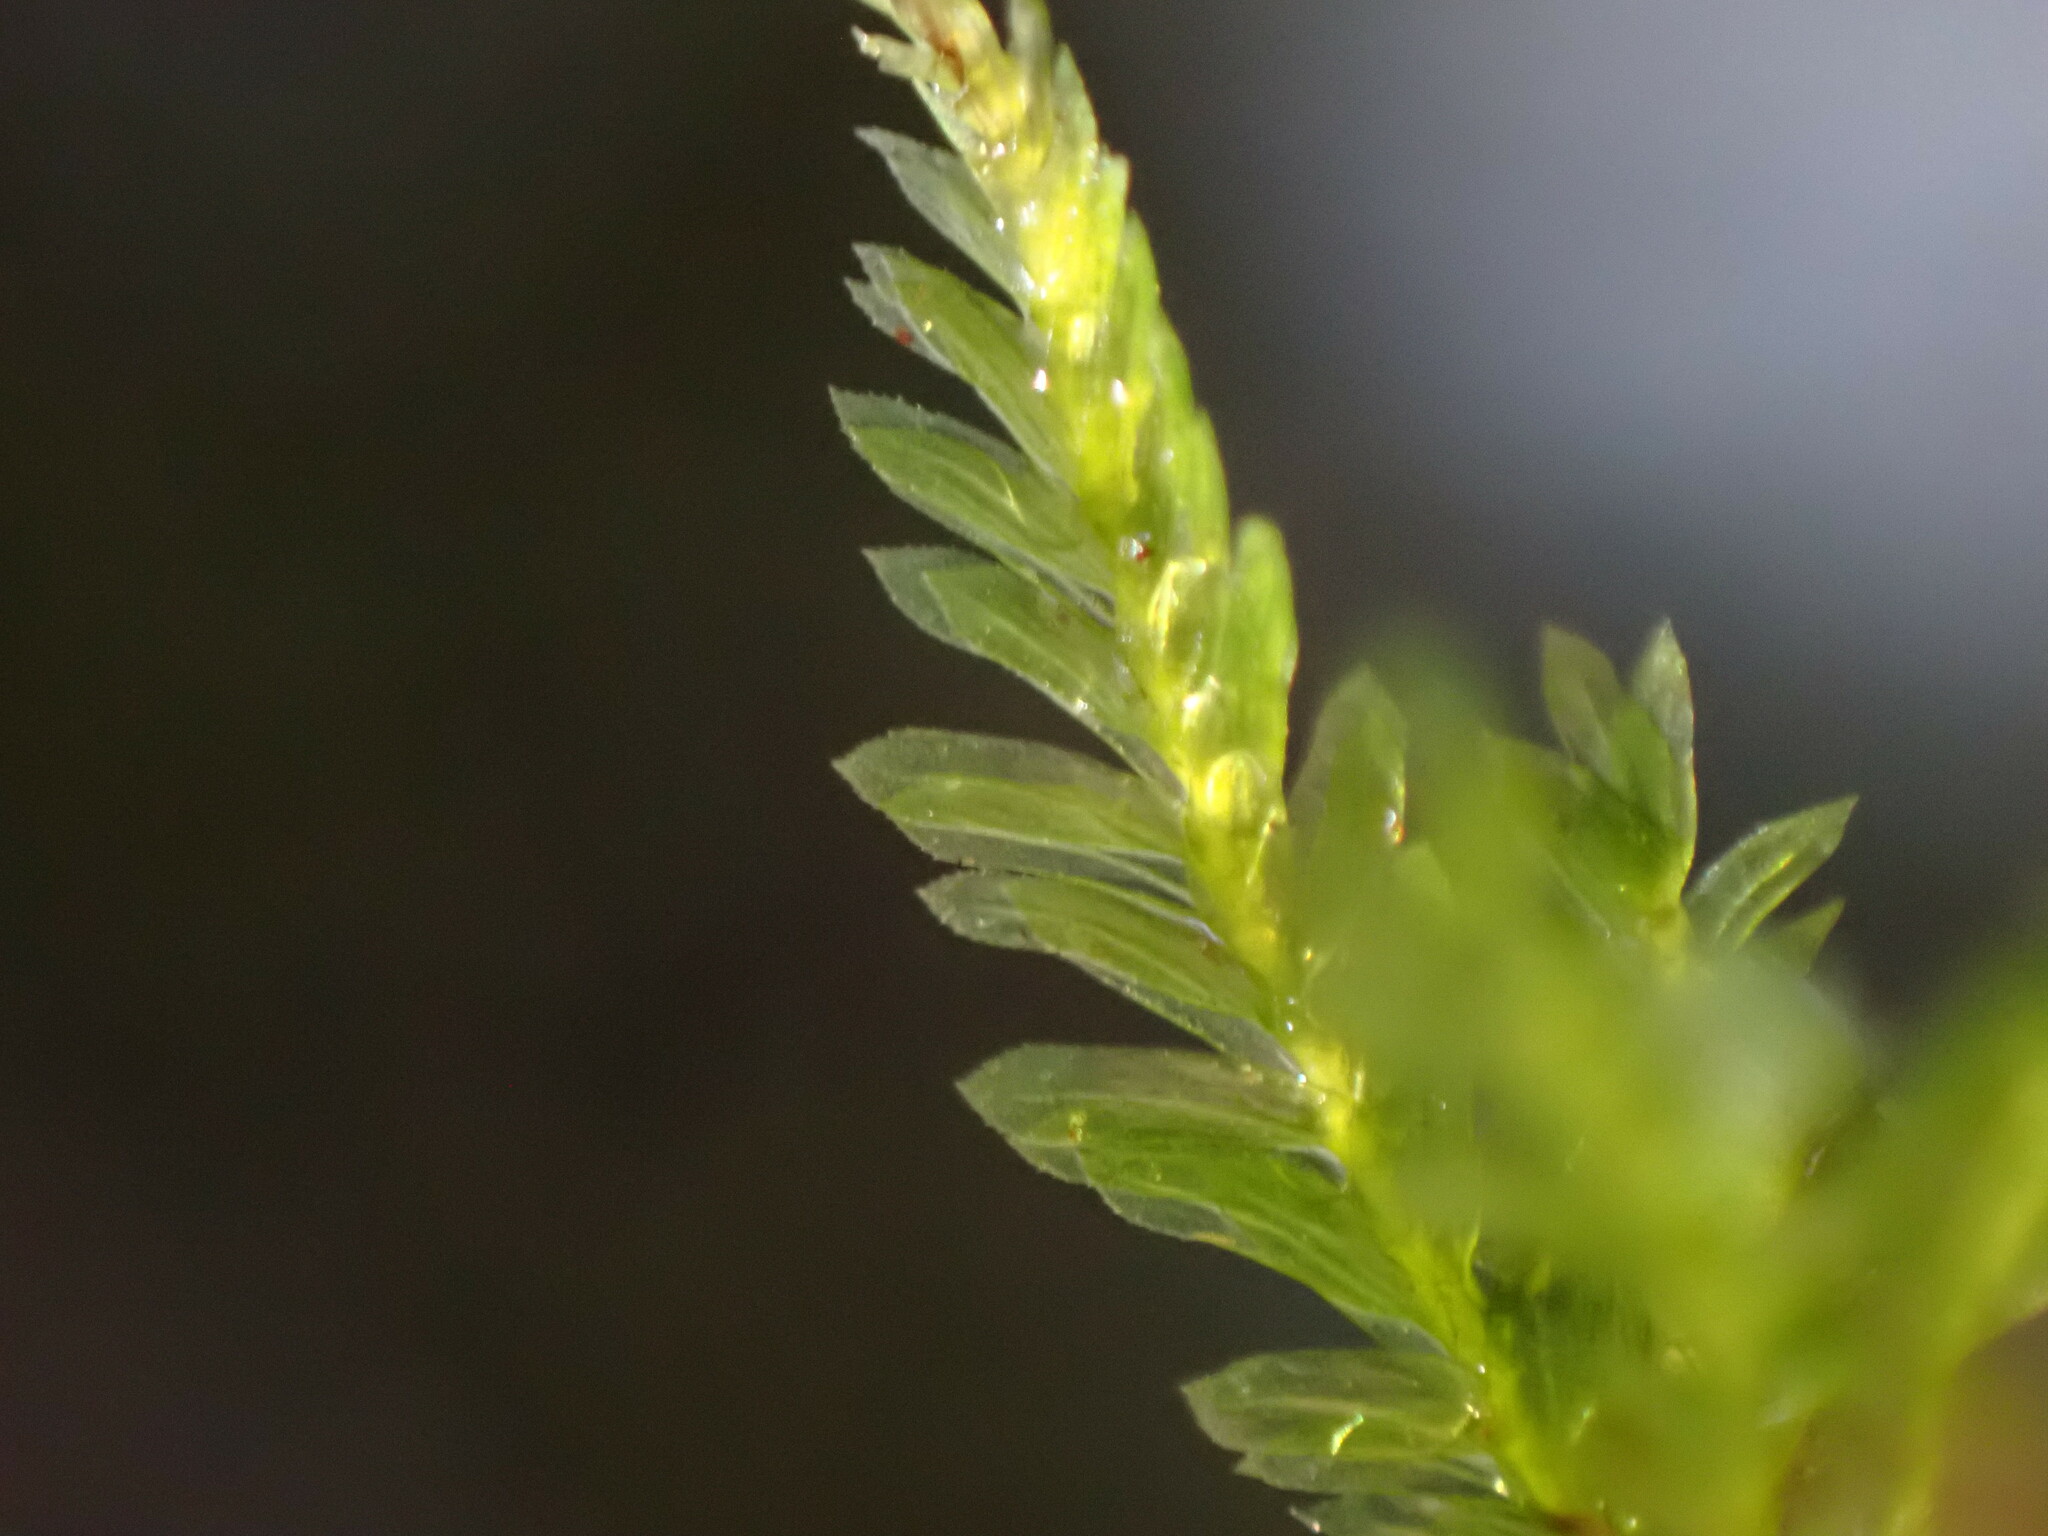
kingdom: Plantae
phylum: Bryophyta
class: Bryopsida
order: Hypnales
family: Neckeraceae
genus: Dannorrisia
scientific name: Dannorrisia bigelovii
